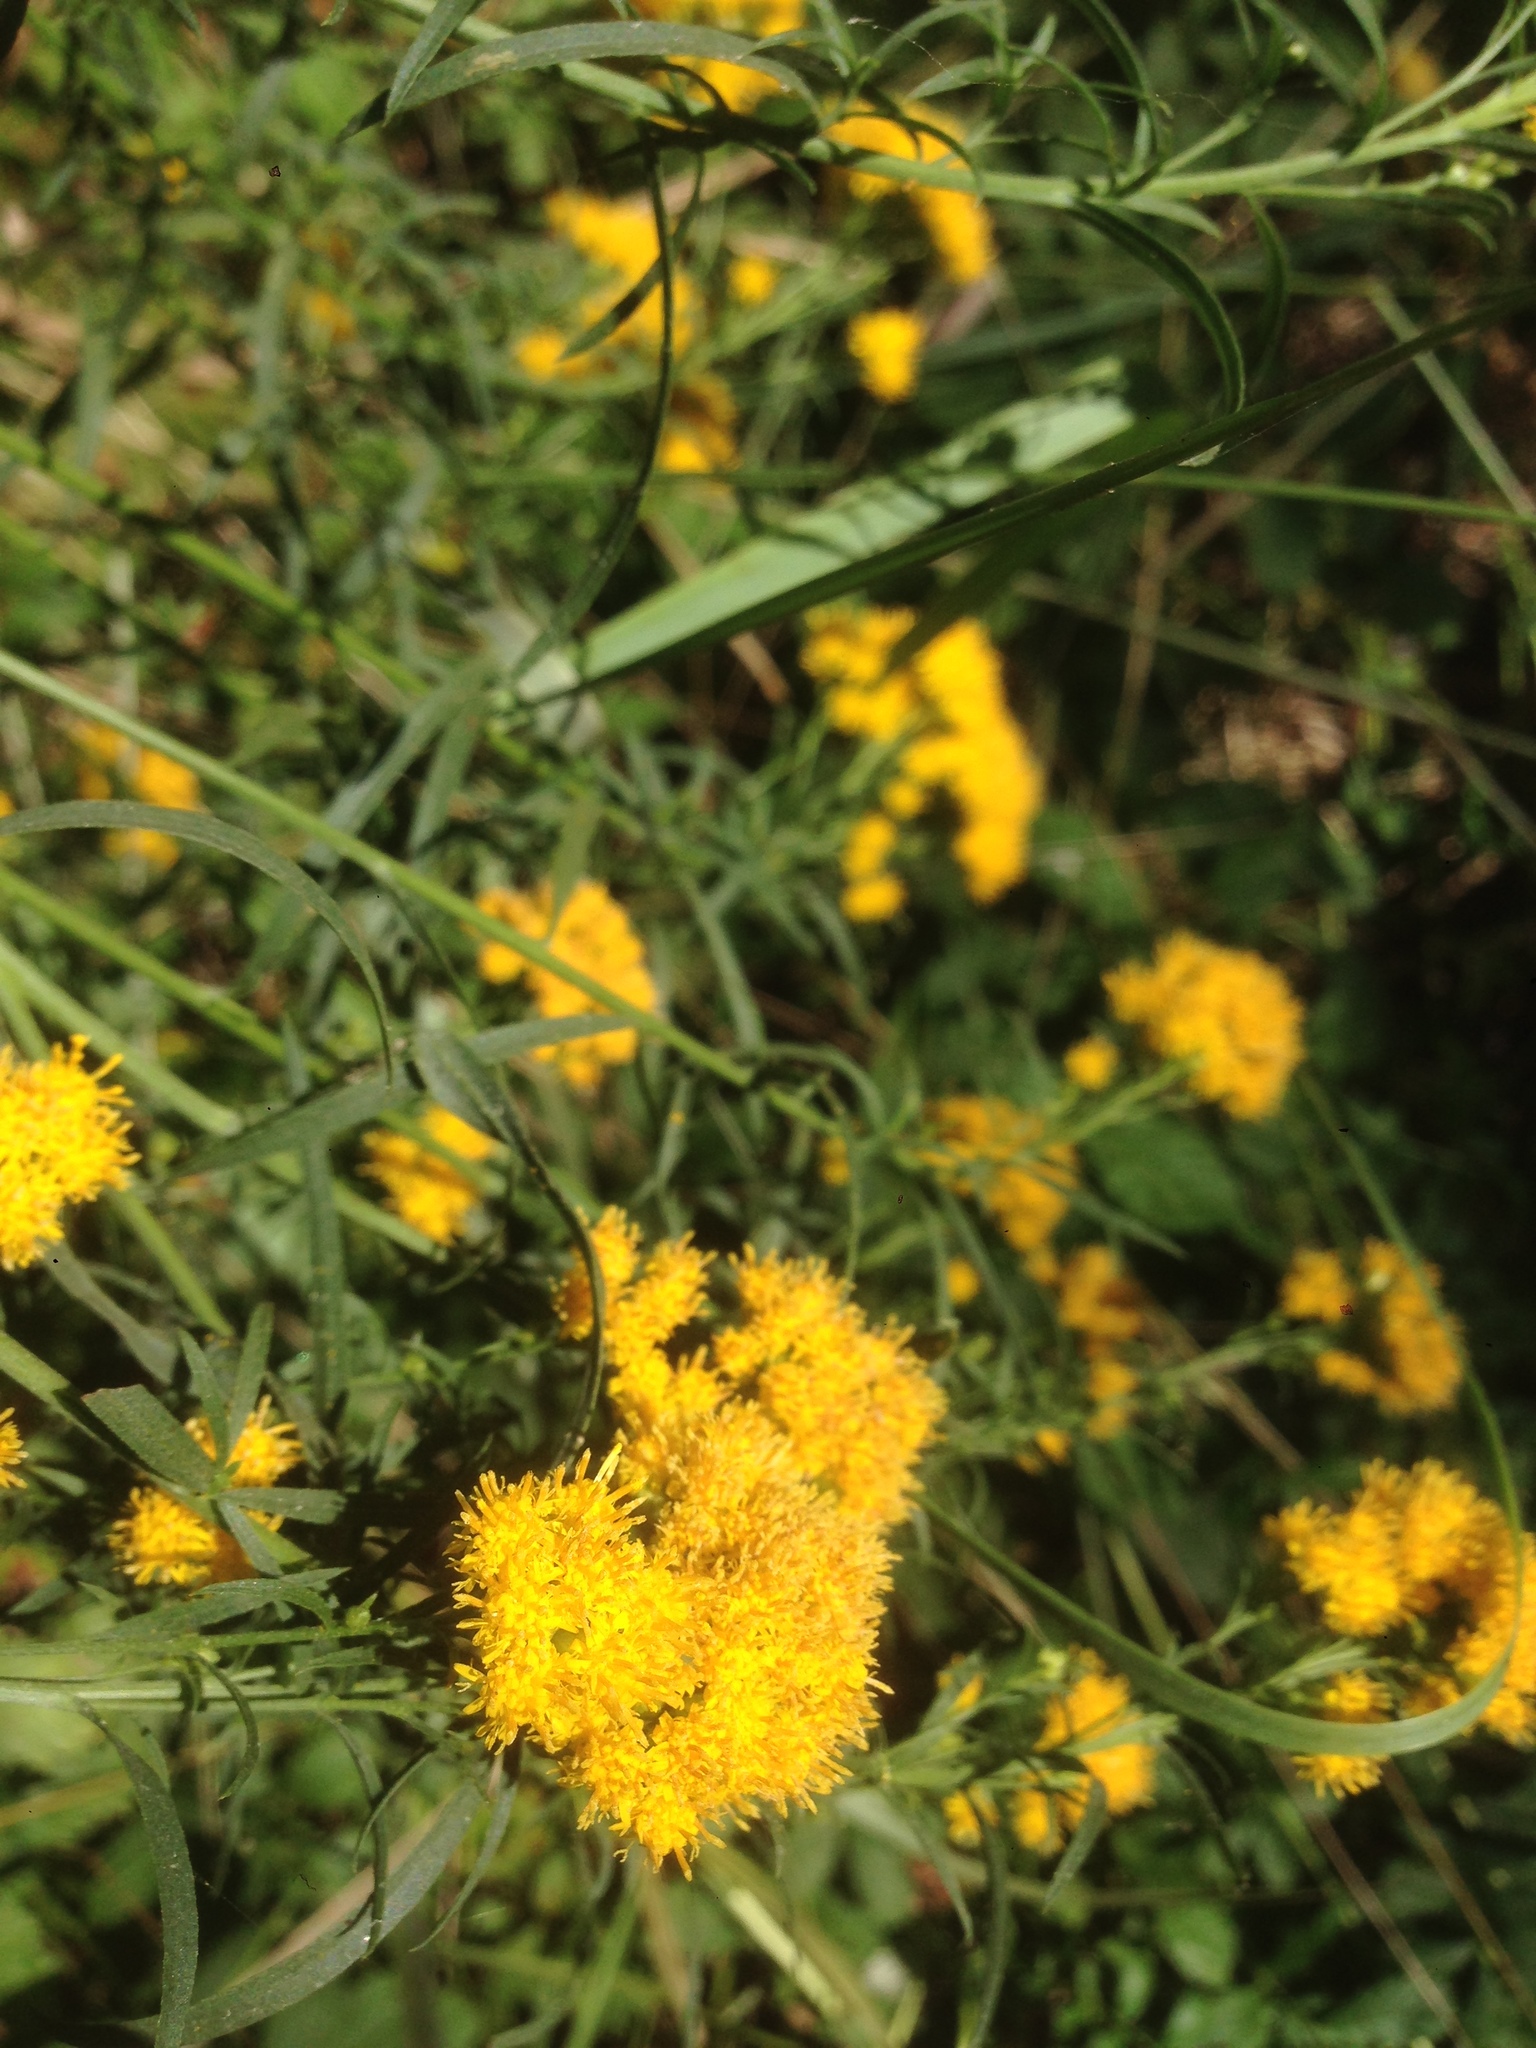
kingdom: Plantae
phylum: Tracheophyta
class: Magnoliopsida
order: Asterales
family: Asteraceae
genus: Euthamia
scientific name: Euthamia occidentalis
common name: Western goldentop
